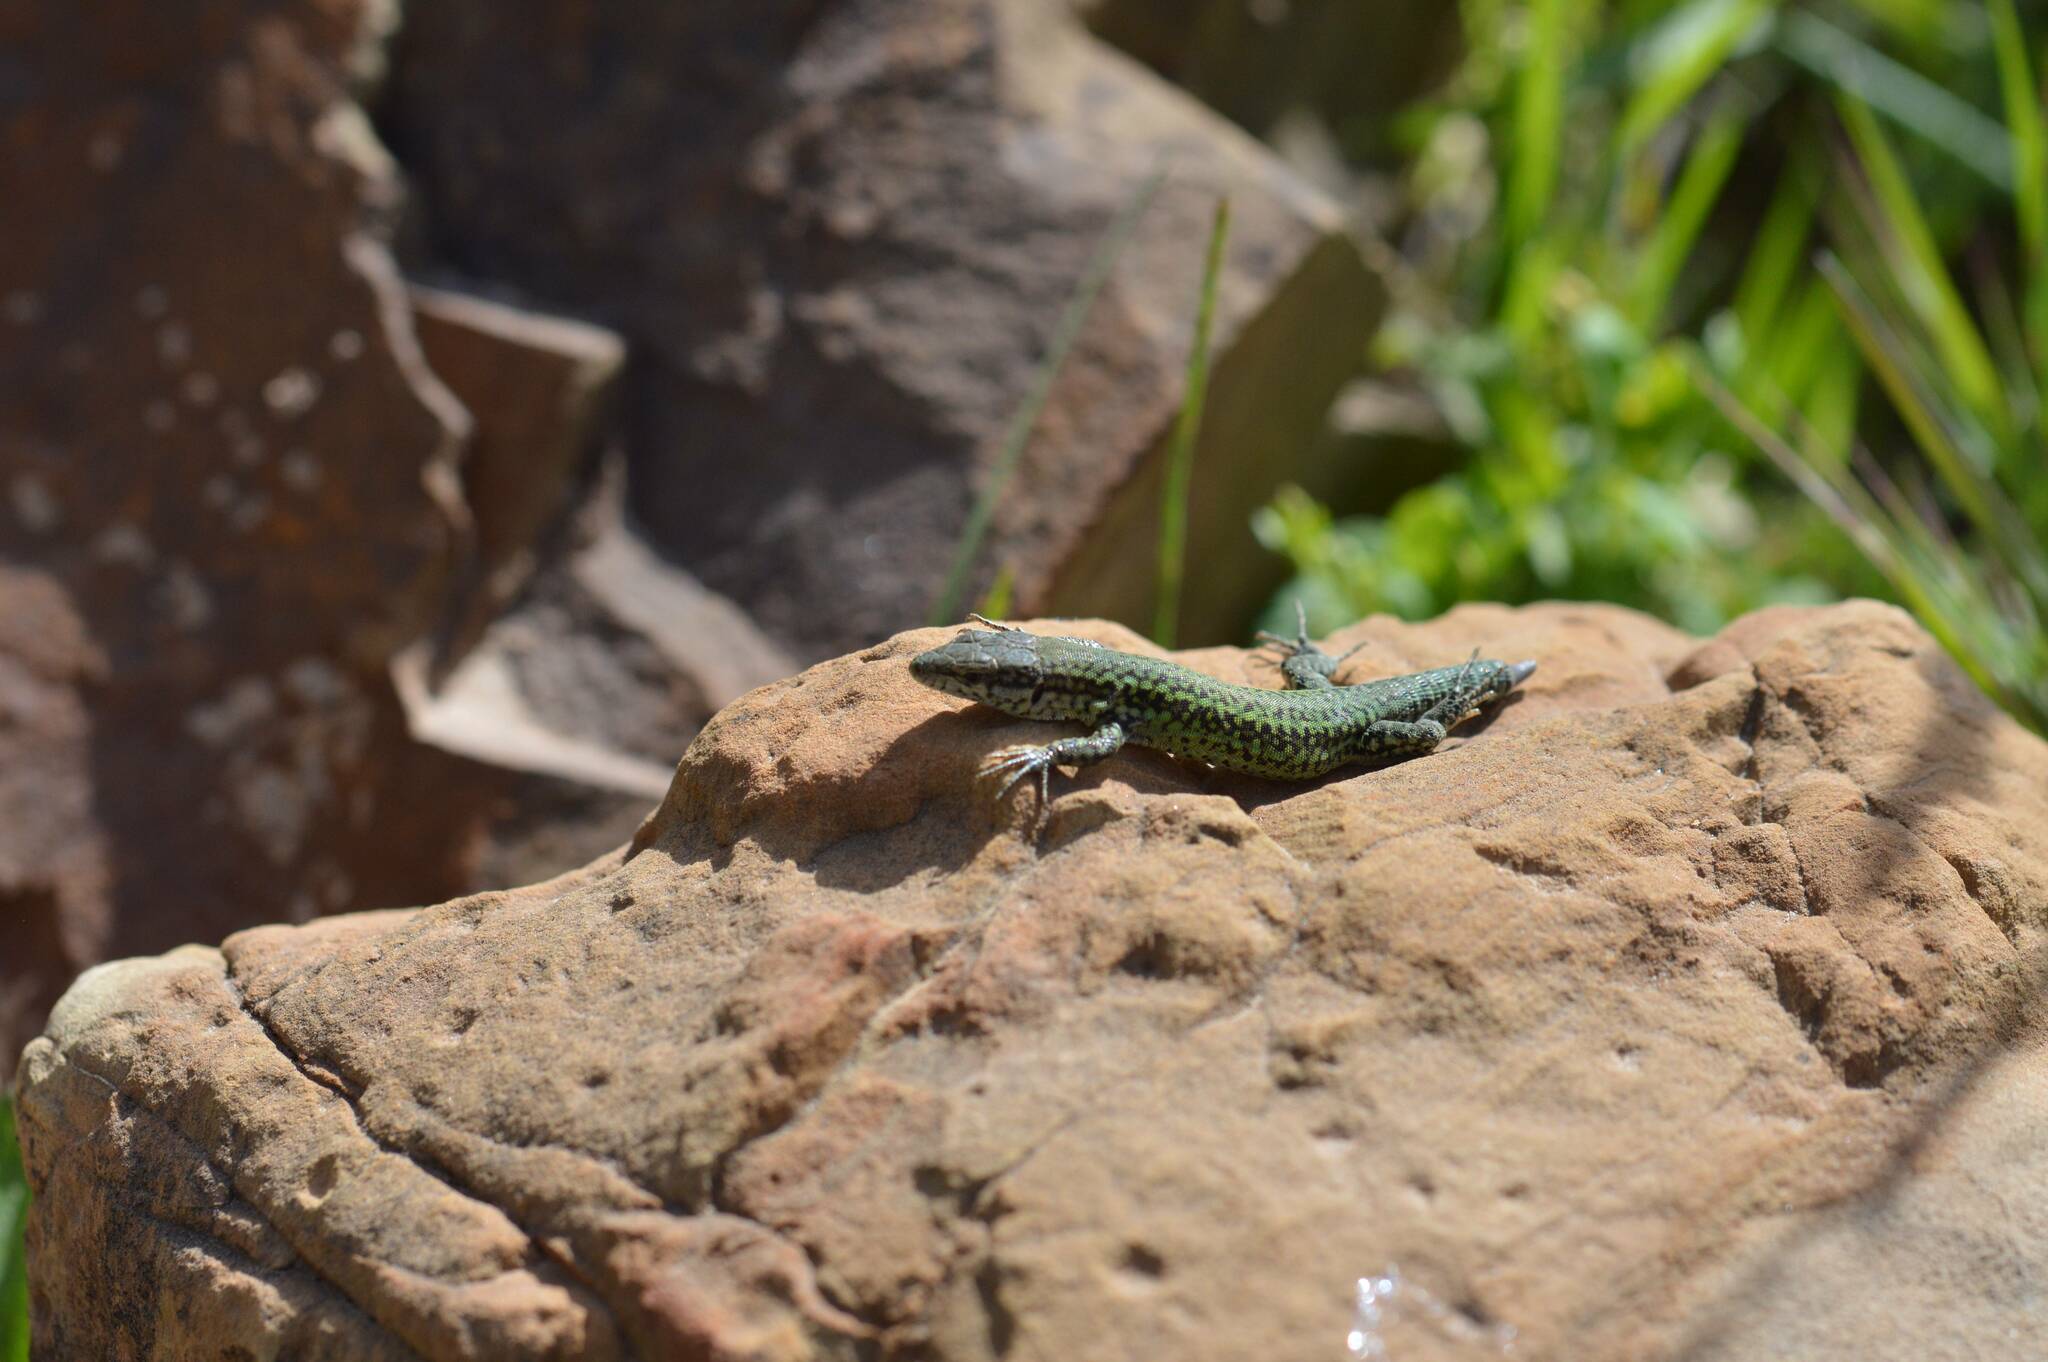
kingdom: Animalia
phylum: Chordata
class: Squamata
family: Lacertidae
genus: Podarcis
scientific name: Podarcis vaucheri
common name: Vaucher's wall lizard
